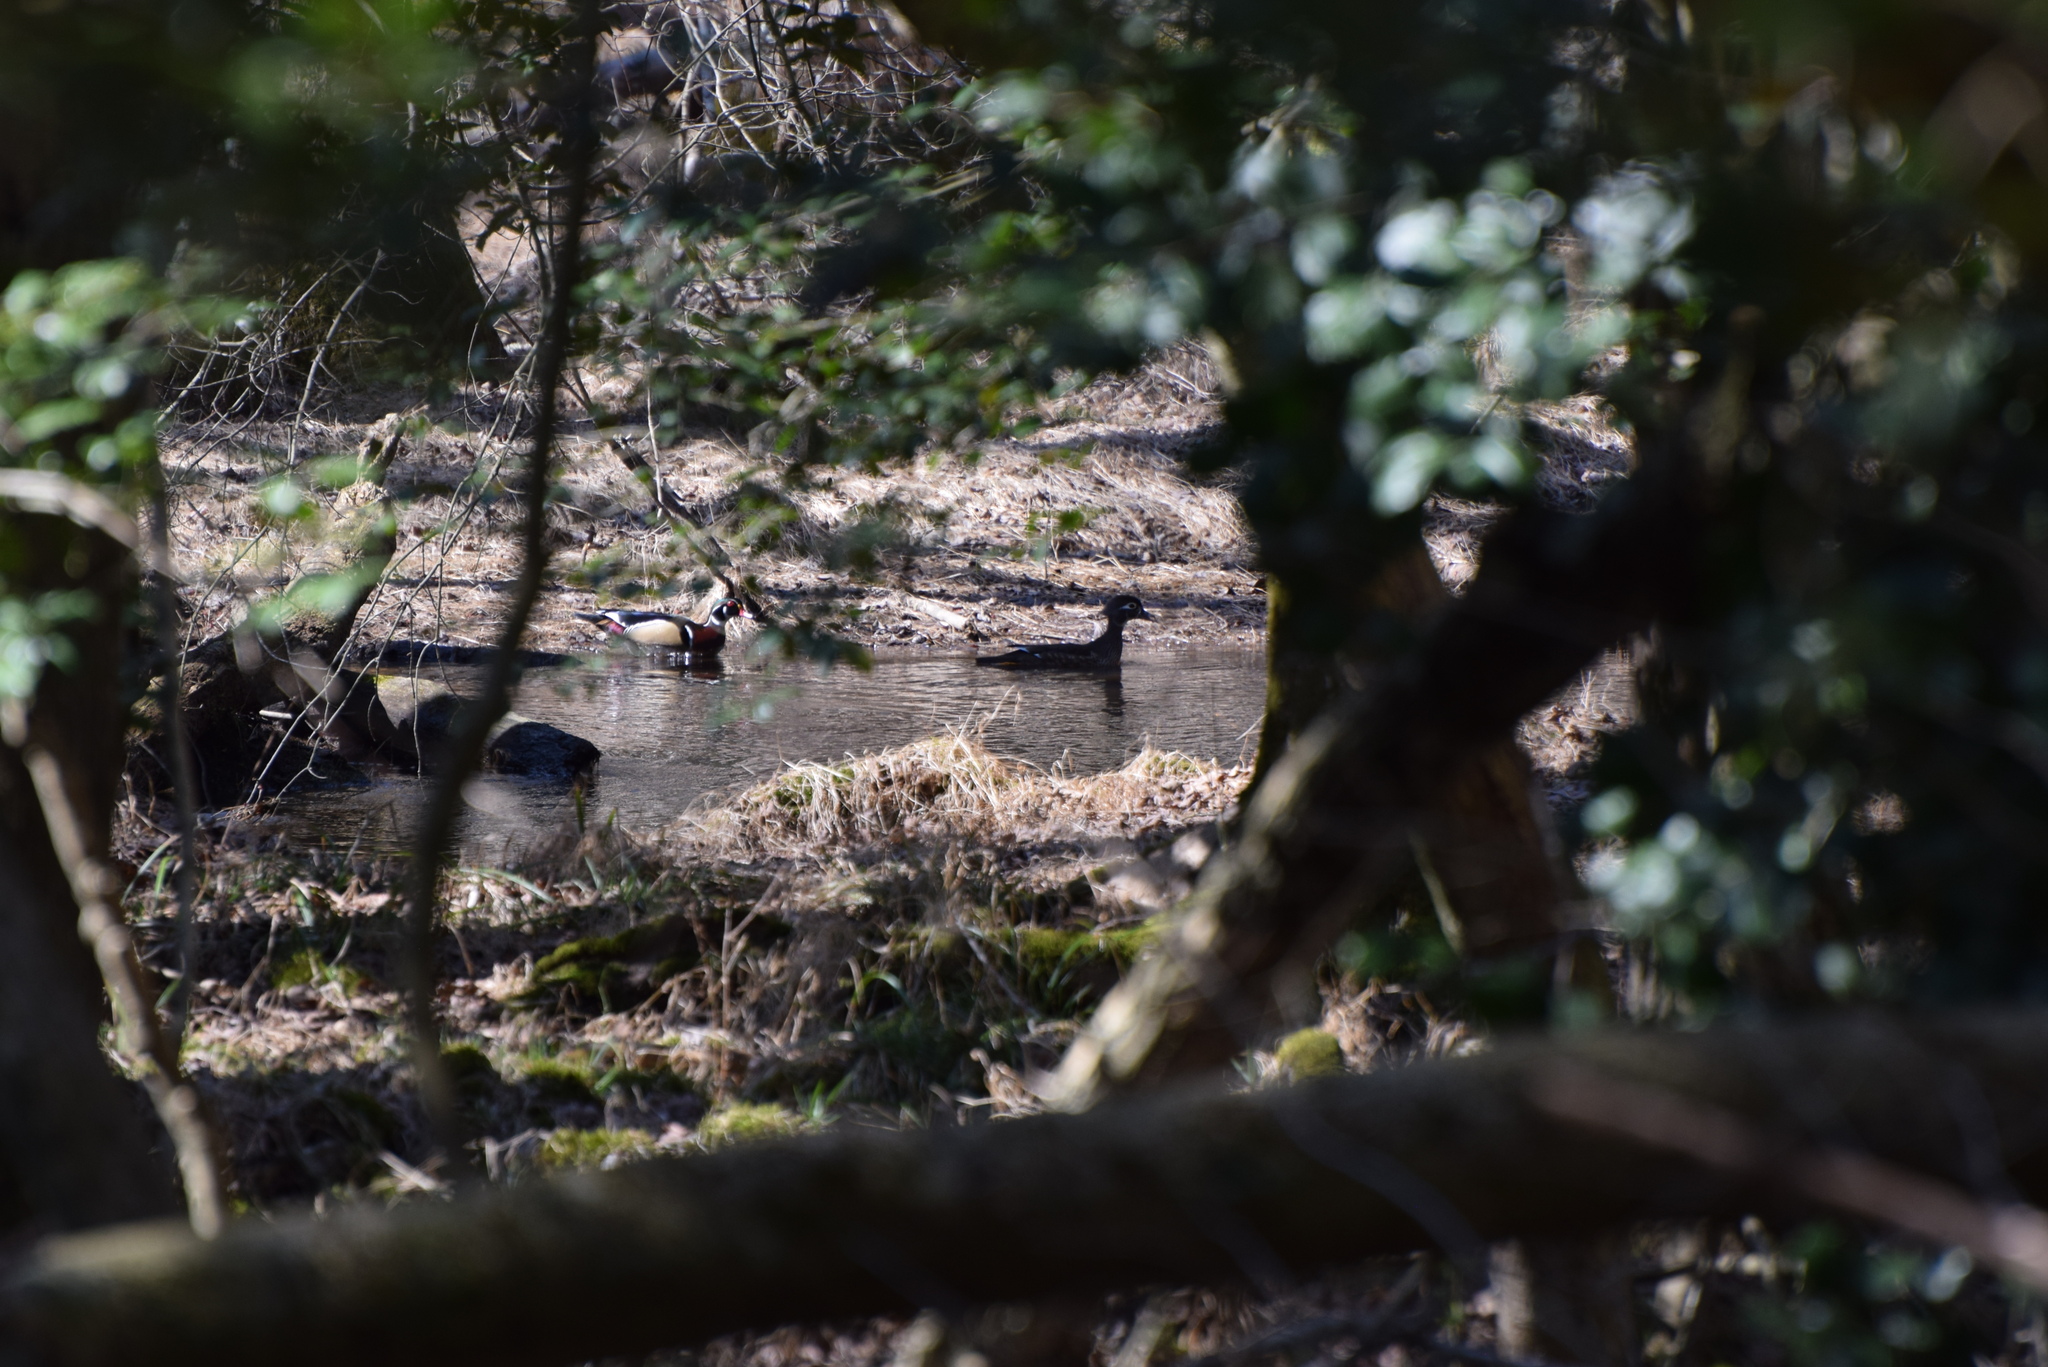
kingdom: Animalia
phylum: Chordata
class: Aves
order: Anseriformes
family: Anatidae
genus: Aix
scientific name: Aix sponsa
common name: Wood duck
